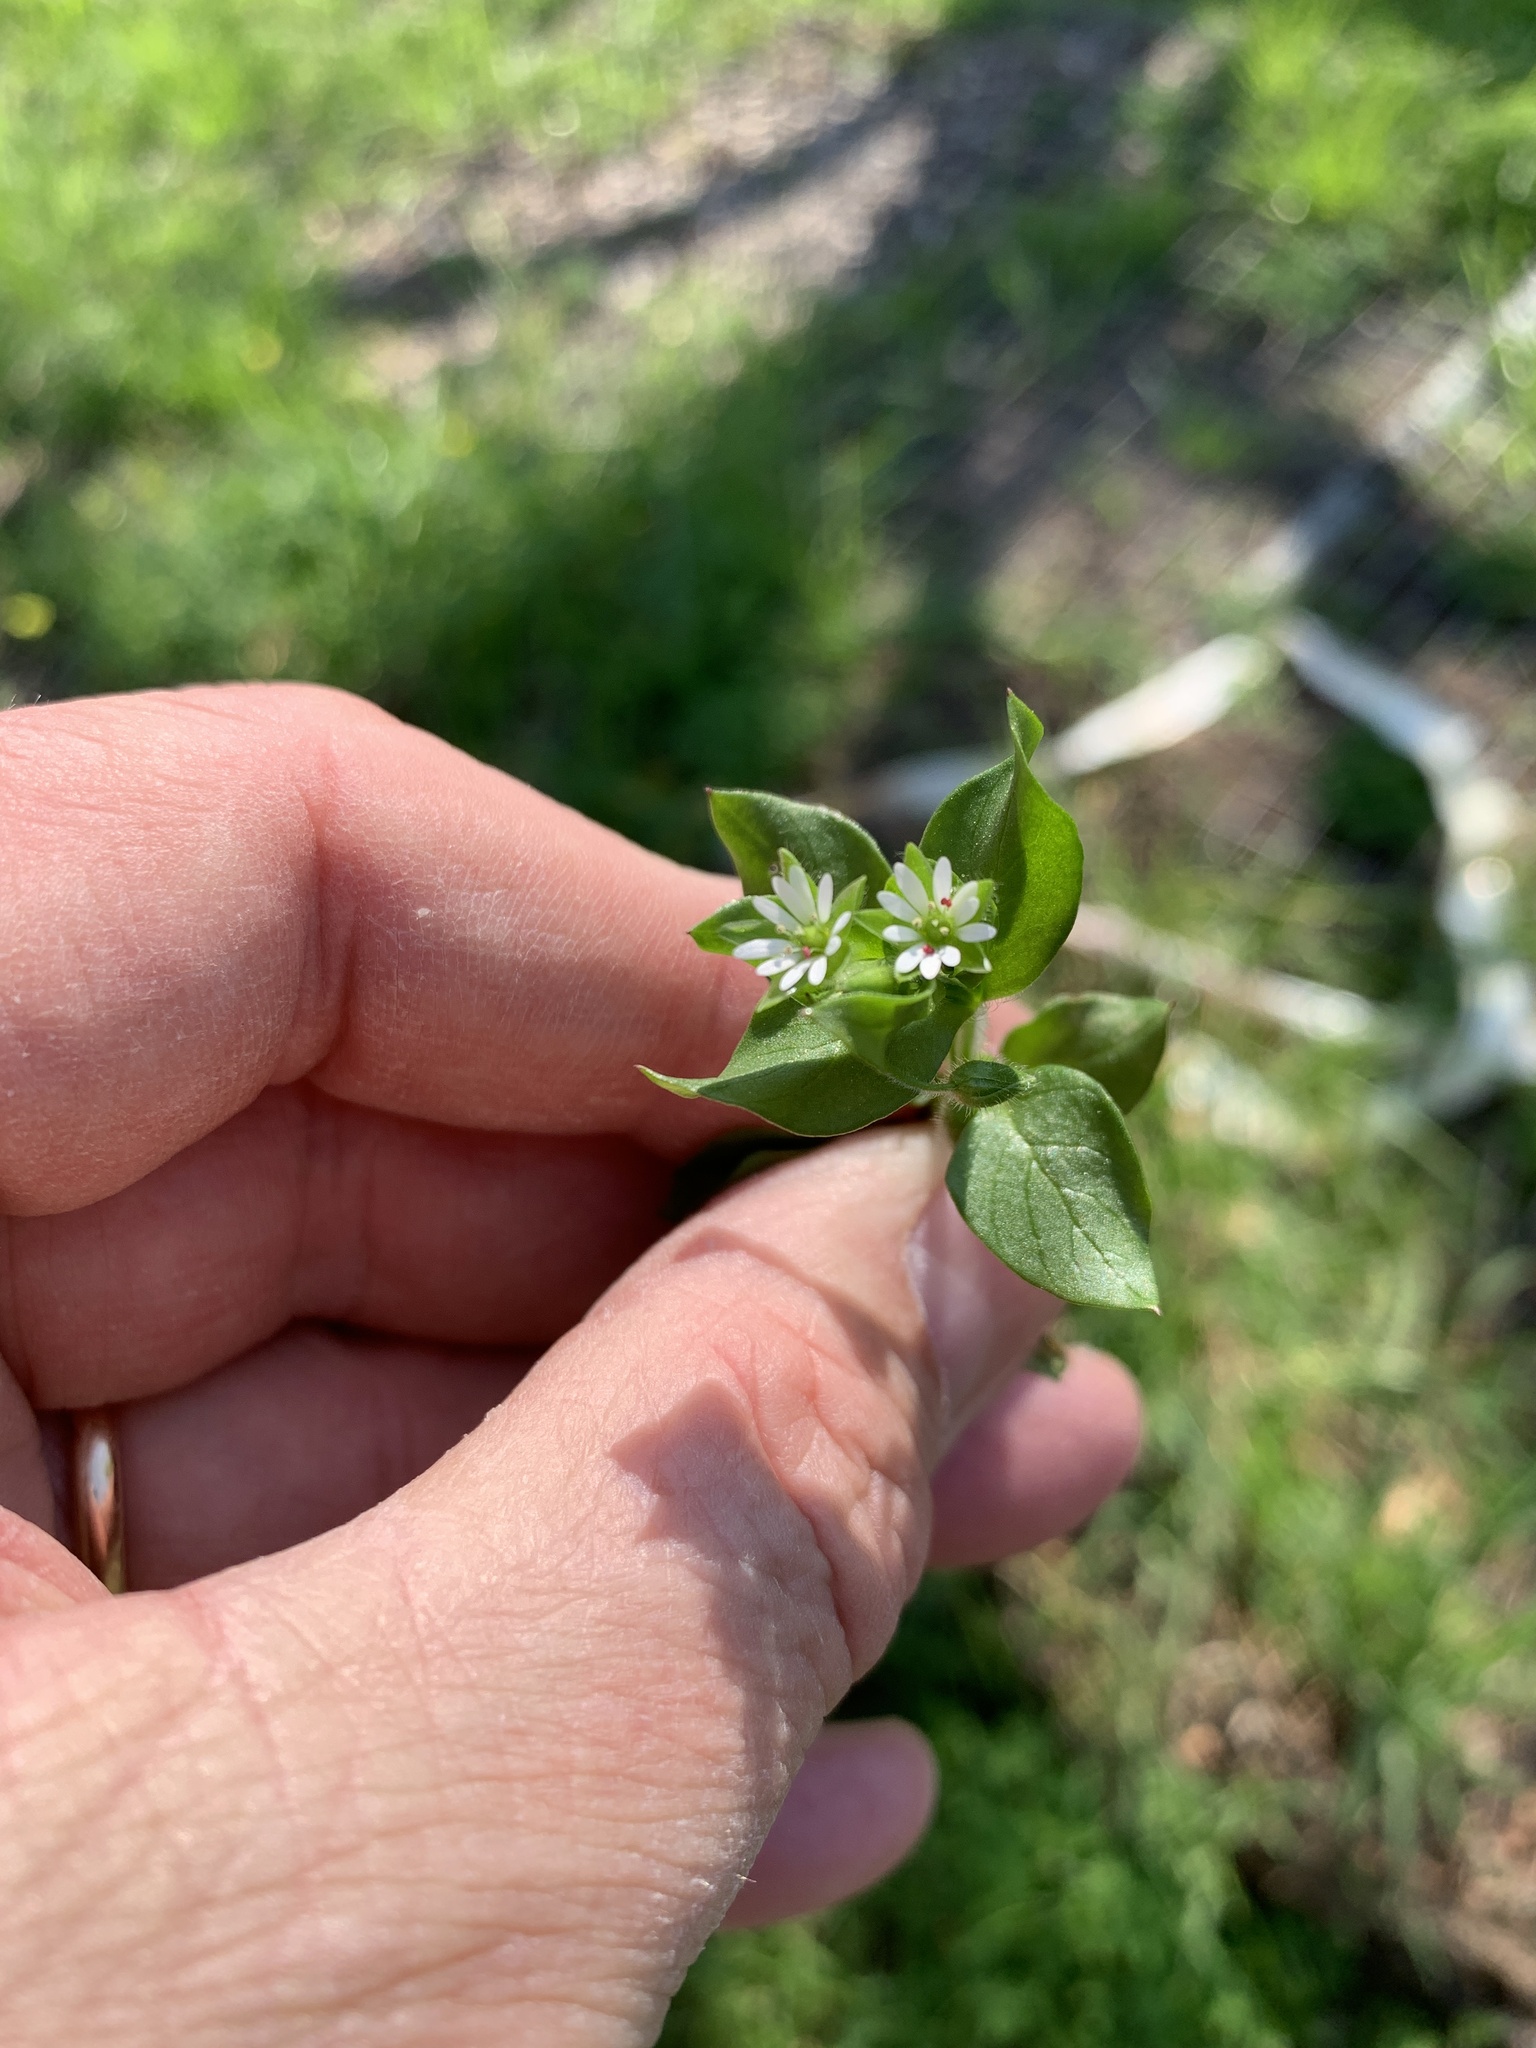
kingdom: Plantae
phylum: Tracheophyta
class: Magnoliopsida
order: Caryophyllales
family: Caryophyllaceae
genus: Stellaria
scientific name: Stellaria media
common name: Common chickweed
